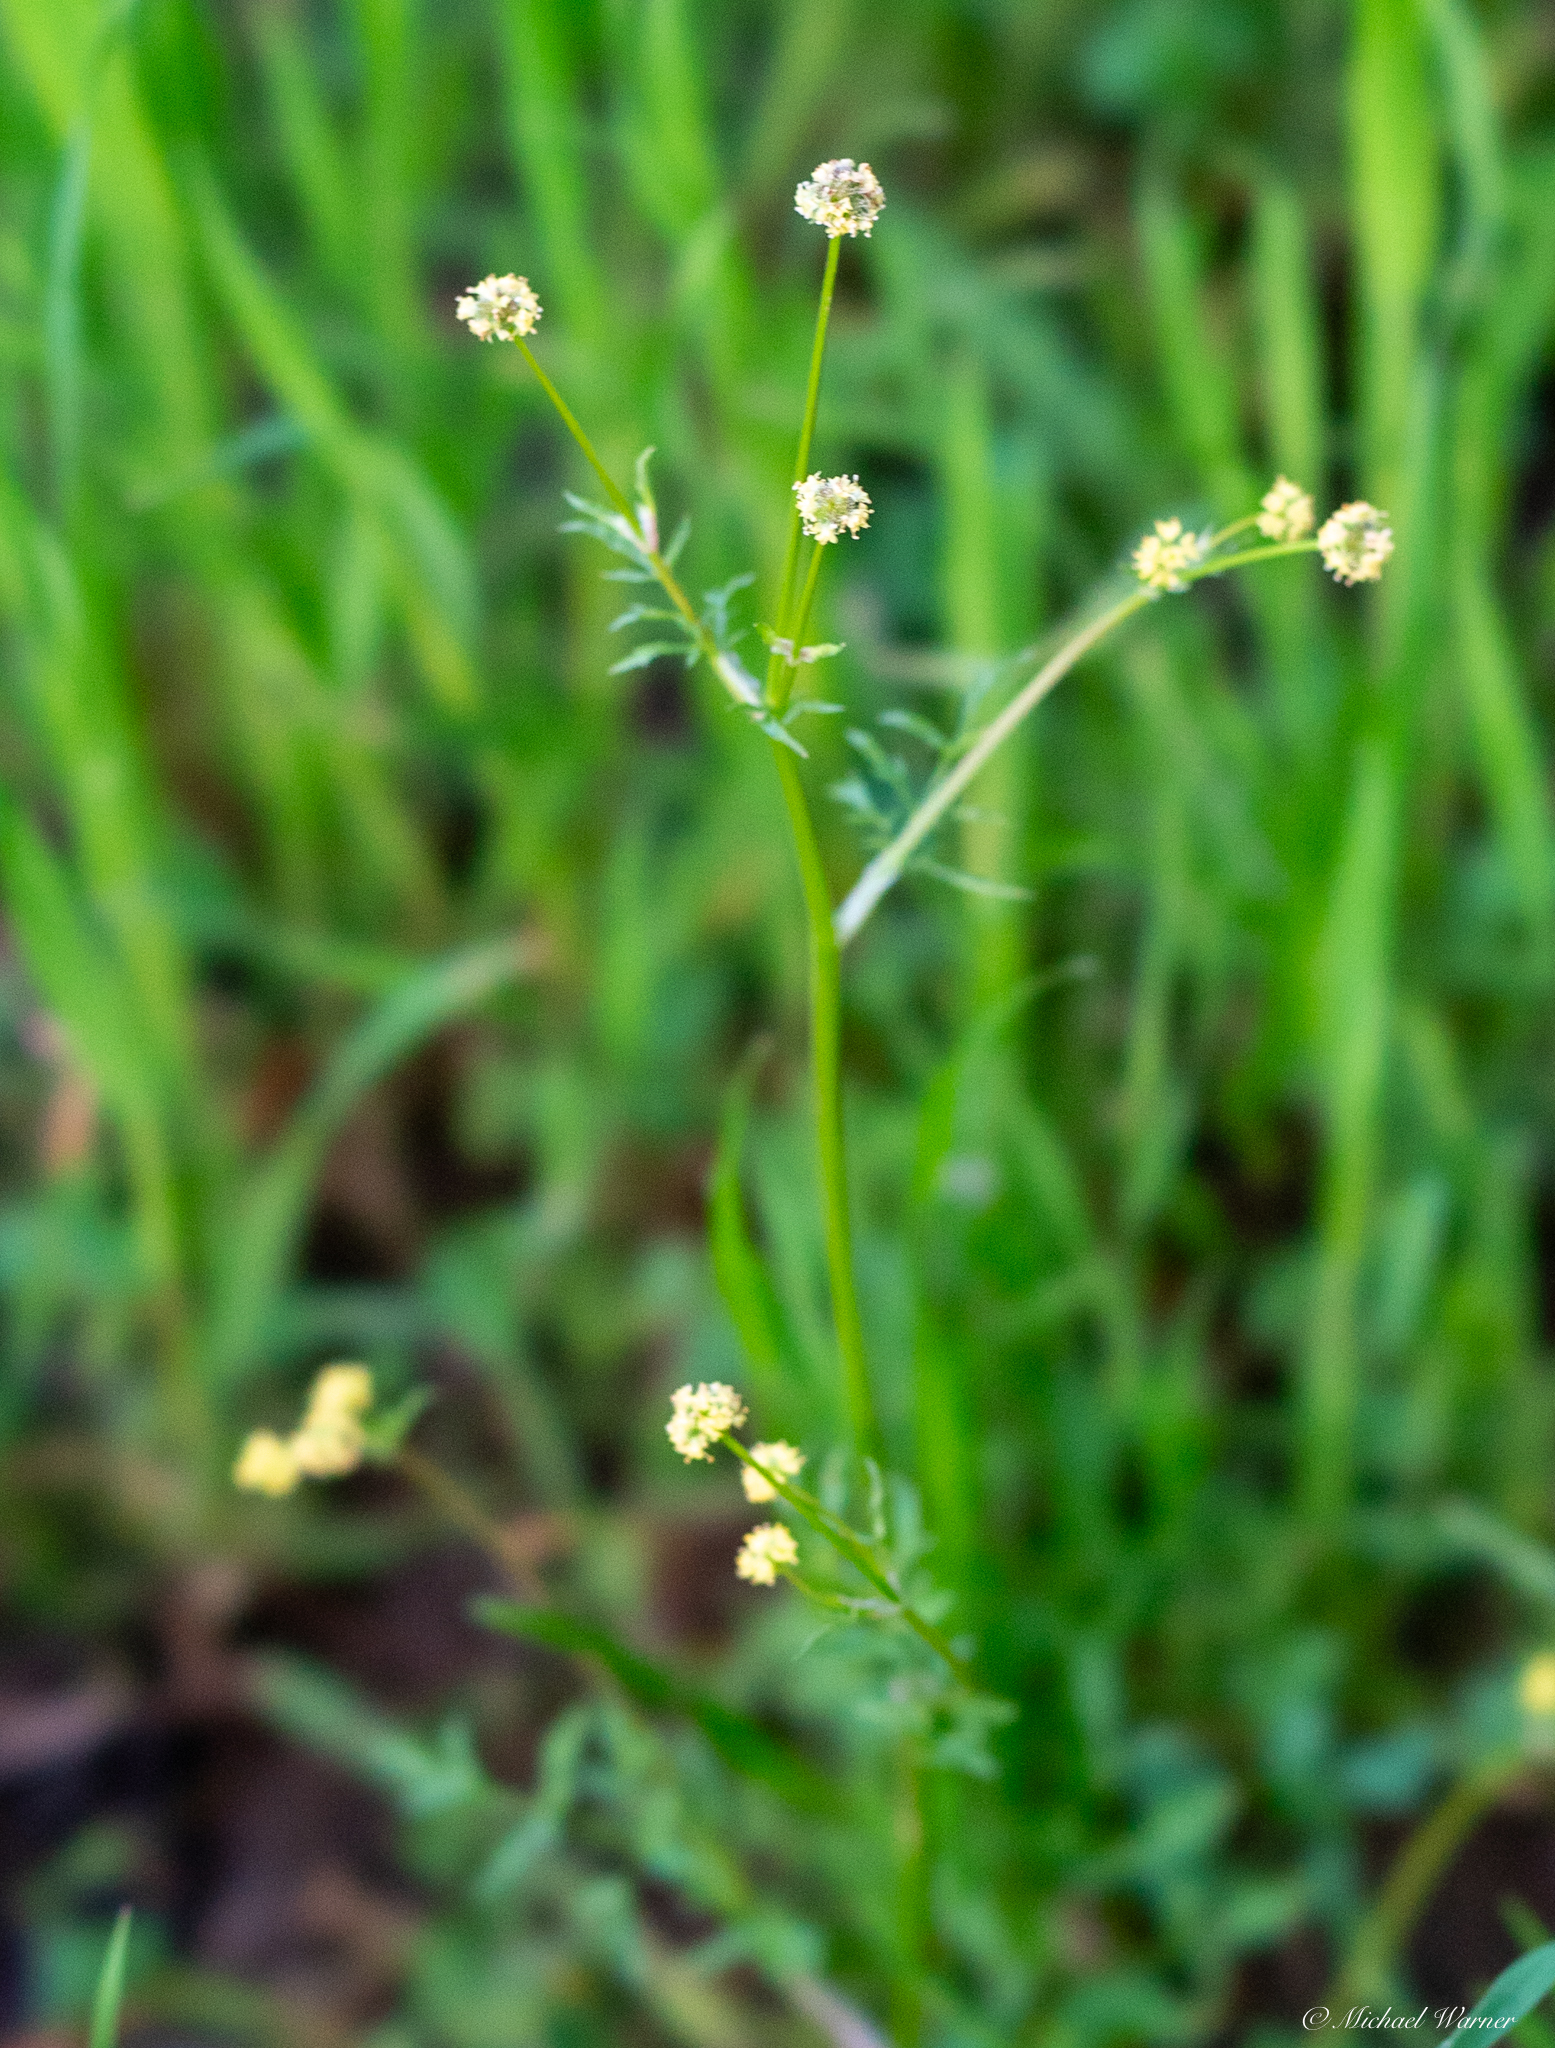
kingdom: Plantae
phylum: Tracheophyta
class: Magnoliopsida
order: Apiales
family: Apiaceae
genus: Sanicula
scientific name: Sanicula bipinnata
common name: Poison sanicle
